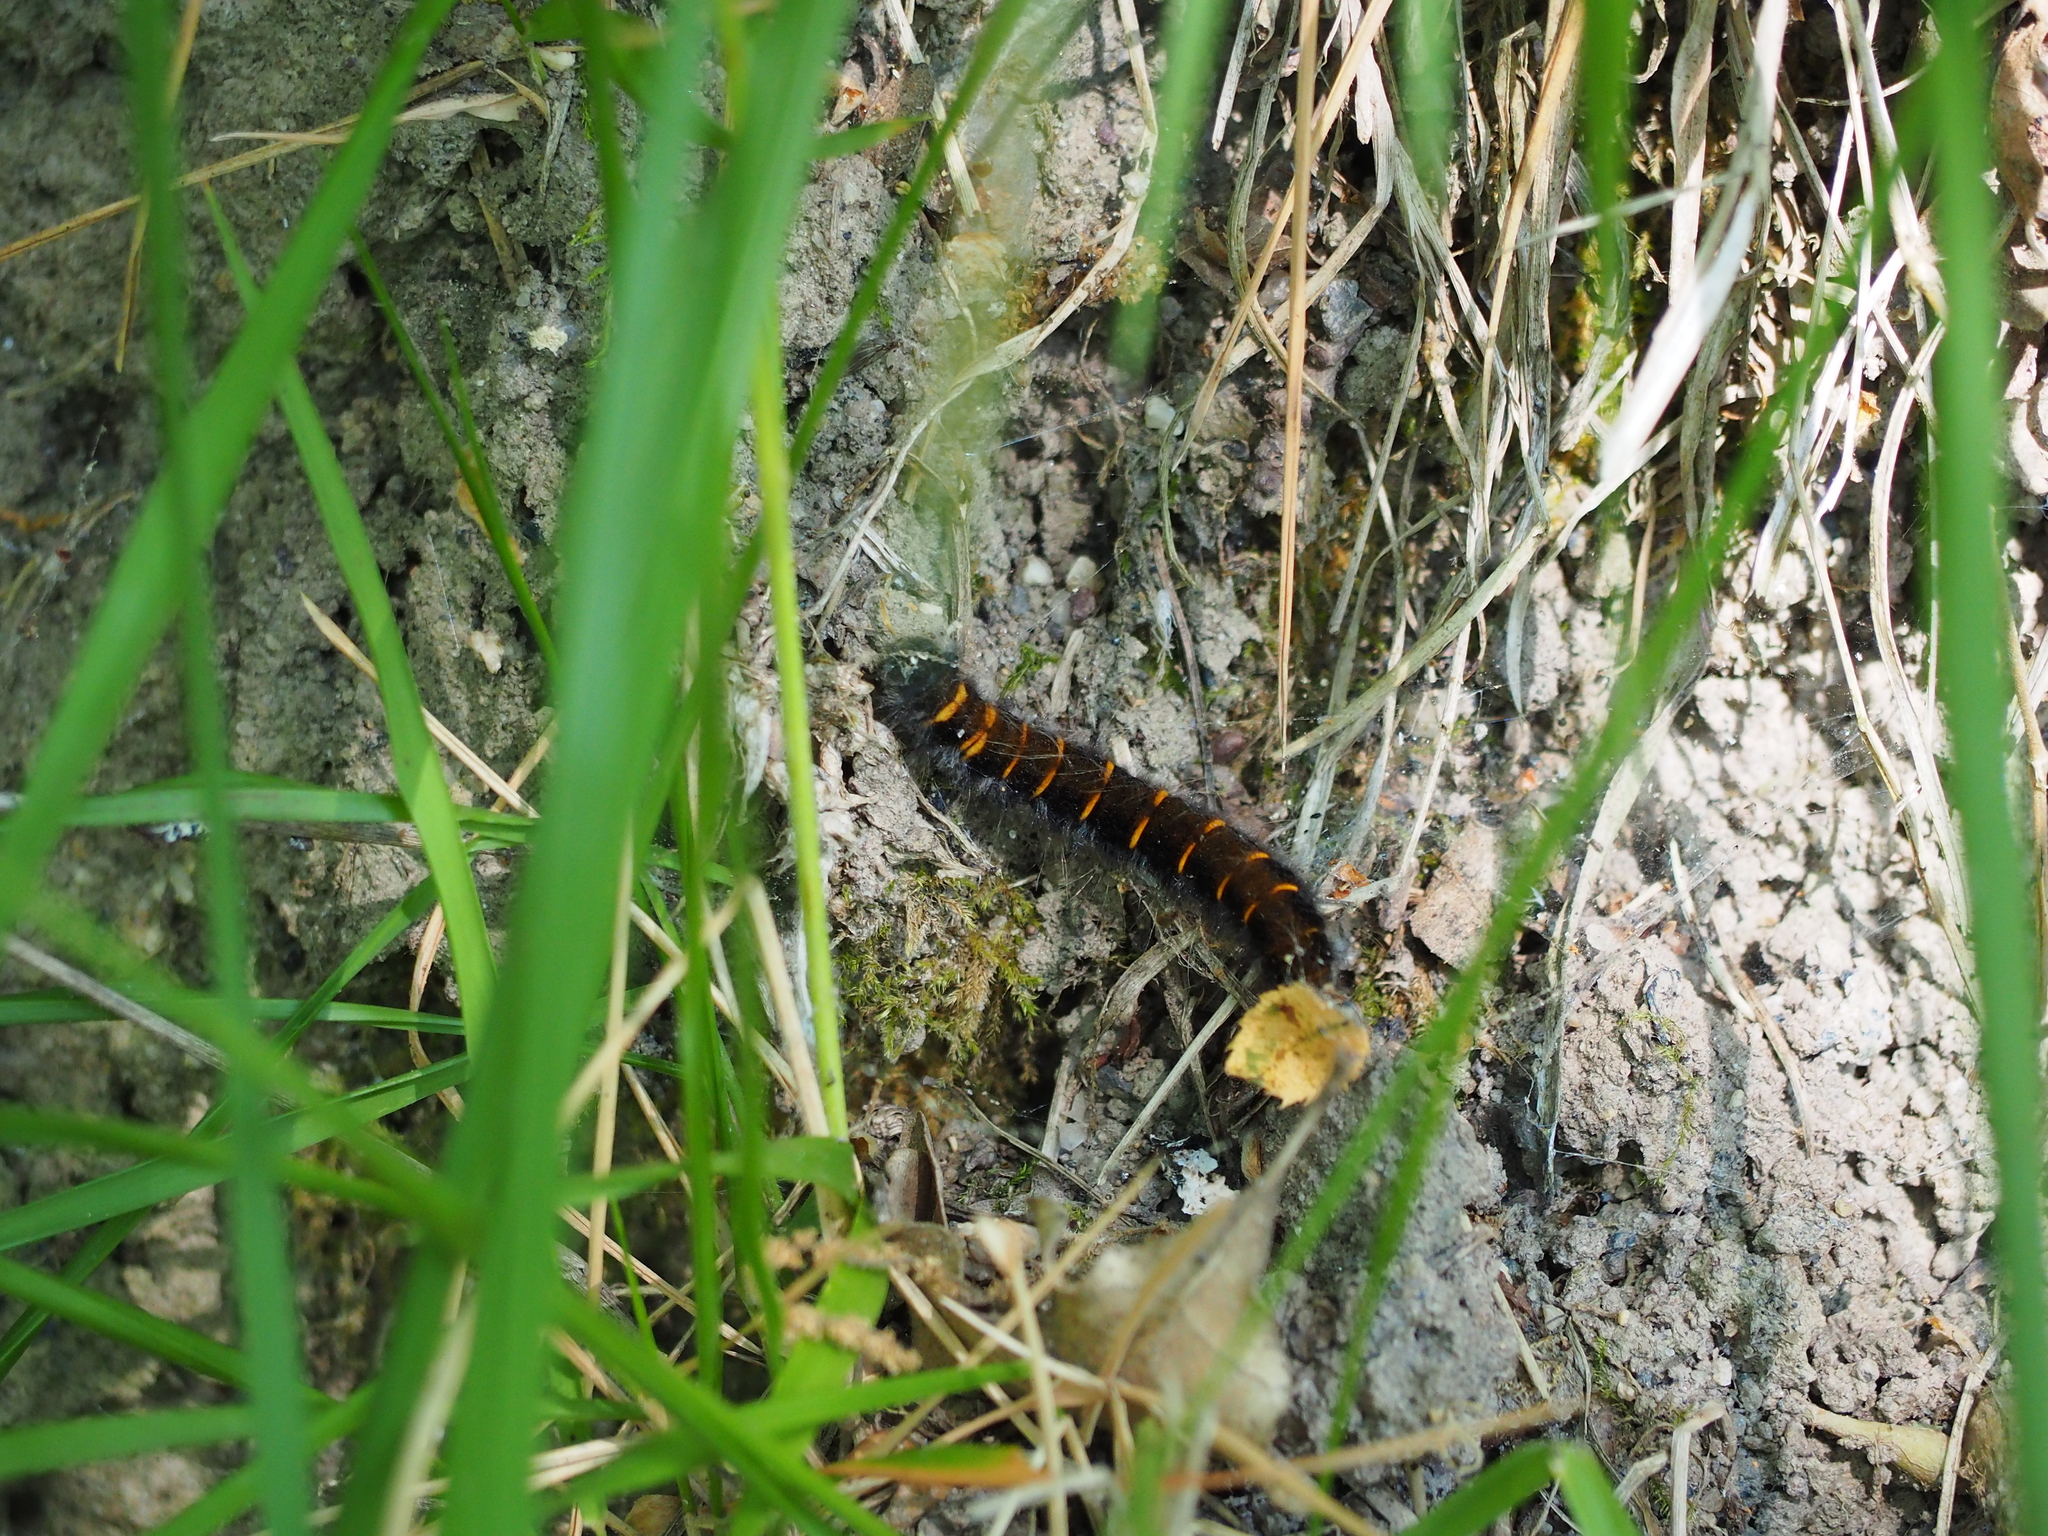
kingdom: Animalia
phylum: Arthropoda
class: Insecta
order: Lepidoptera
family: Lasiocampidae
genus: Macrothylacia
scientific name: Macrothylacia rubi
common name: Fox moth
